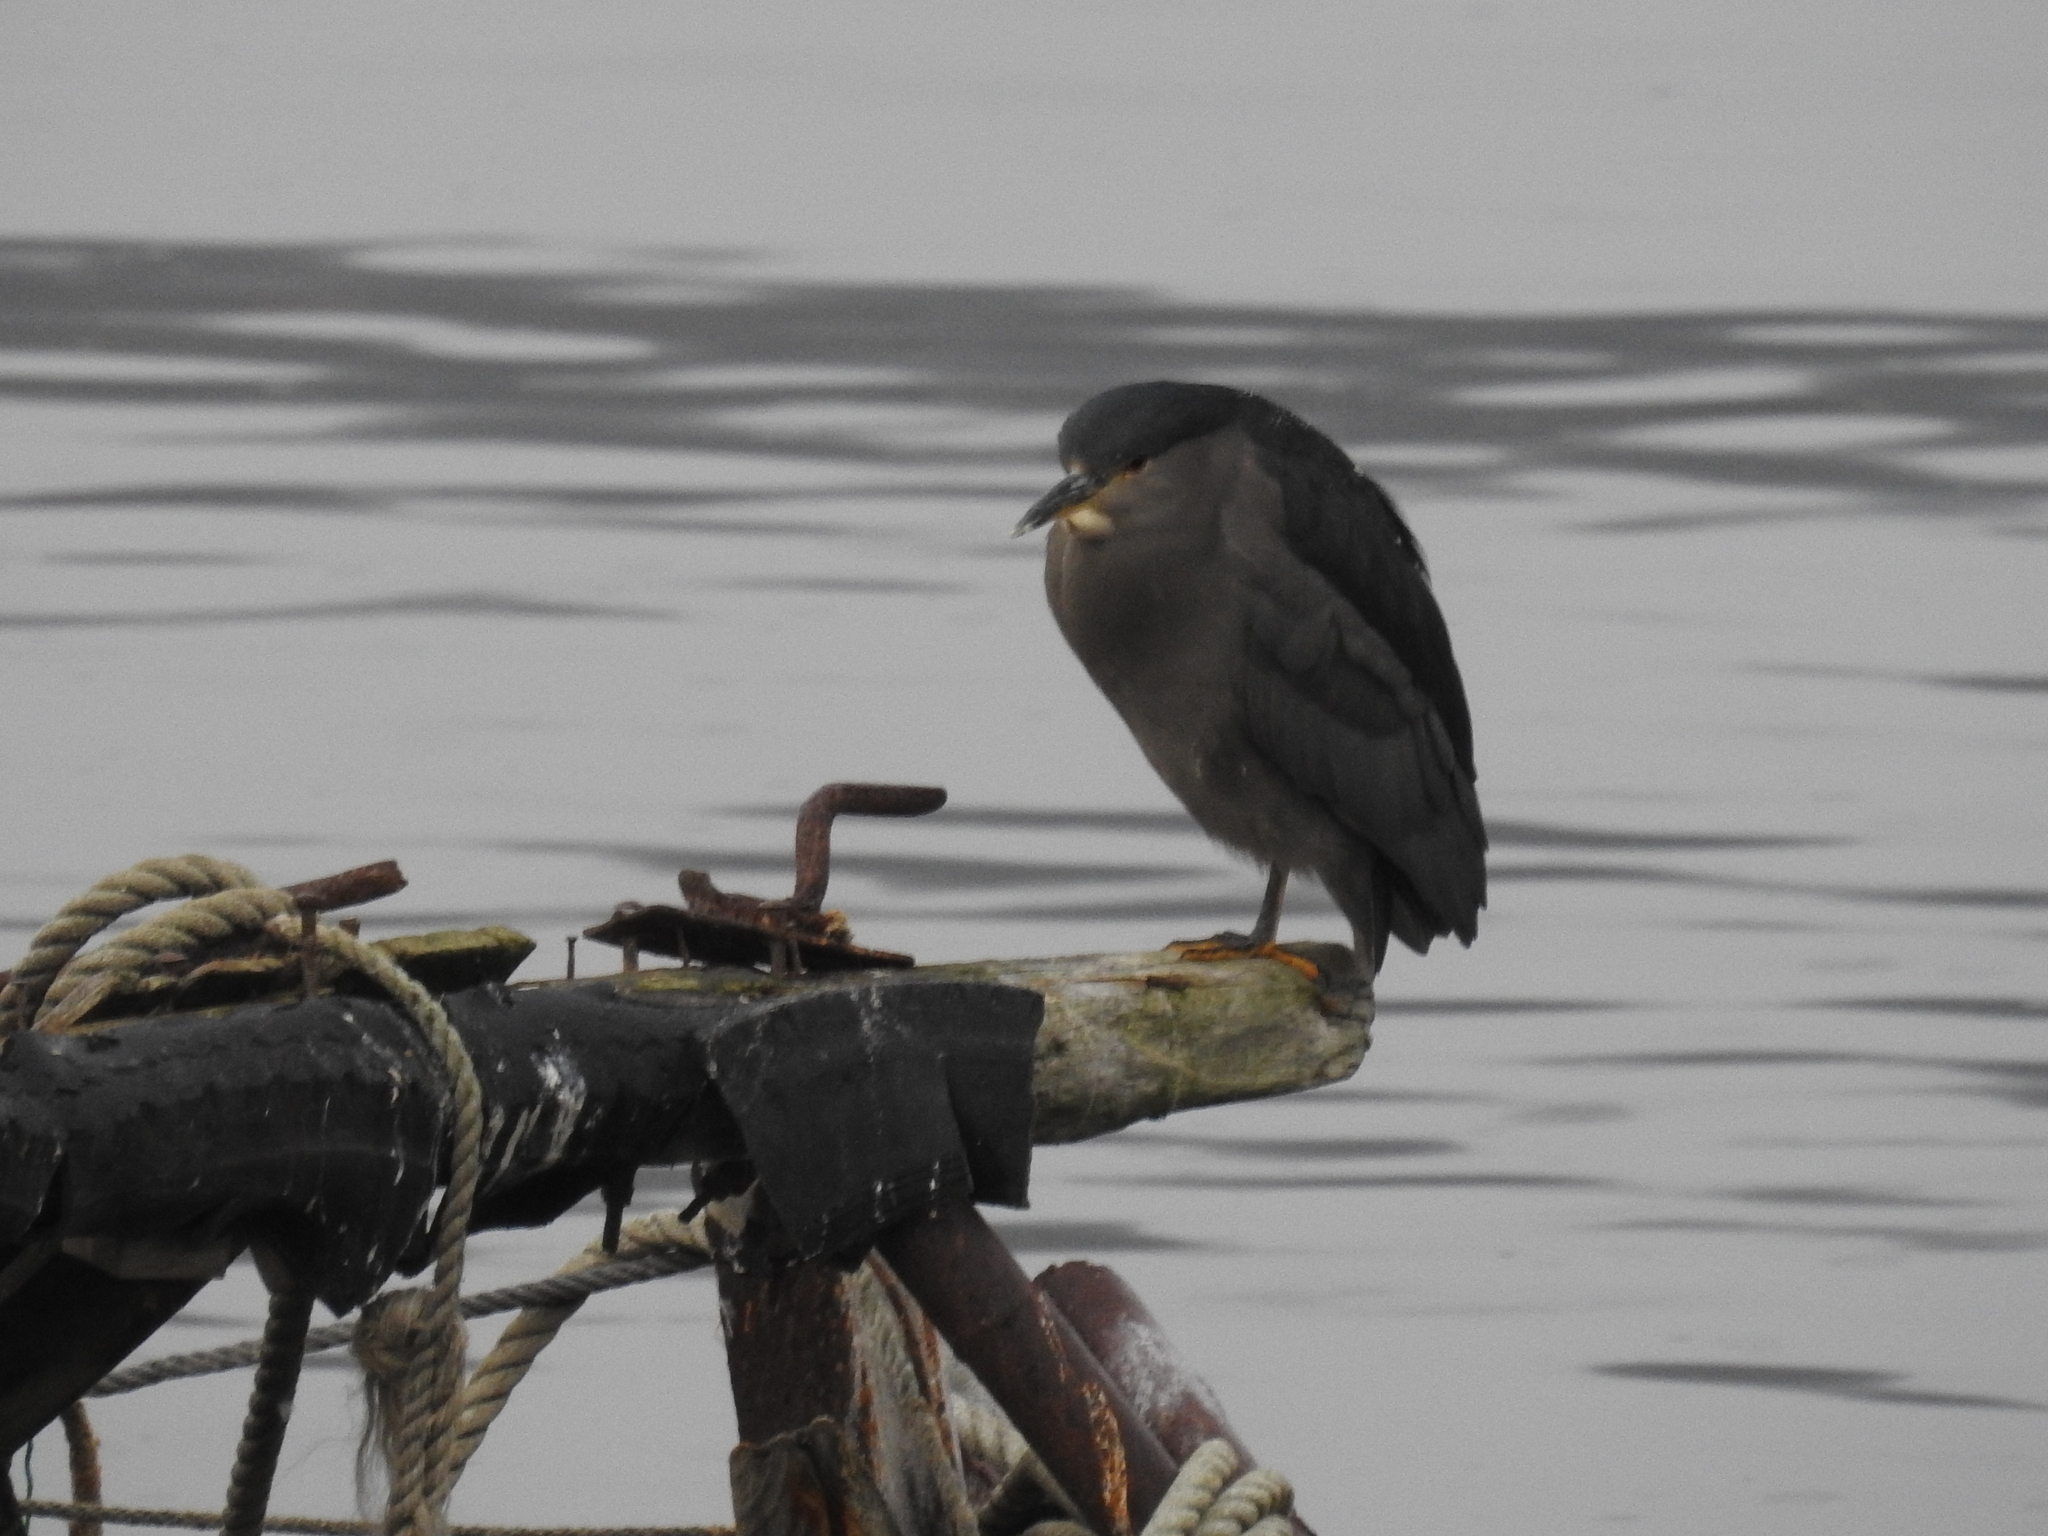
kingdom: Animalia
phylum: Chordata
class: Aves
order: Pelecaniformes
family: Ardeidae
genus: Nycticorax
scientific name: Nycticorax nycticorax
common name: Black-crowned night heron
